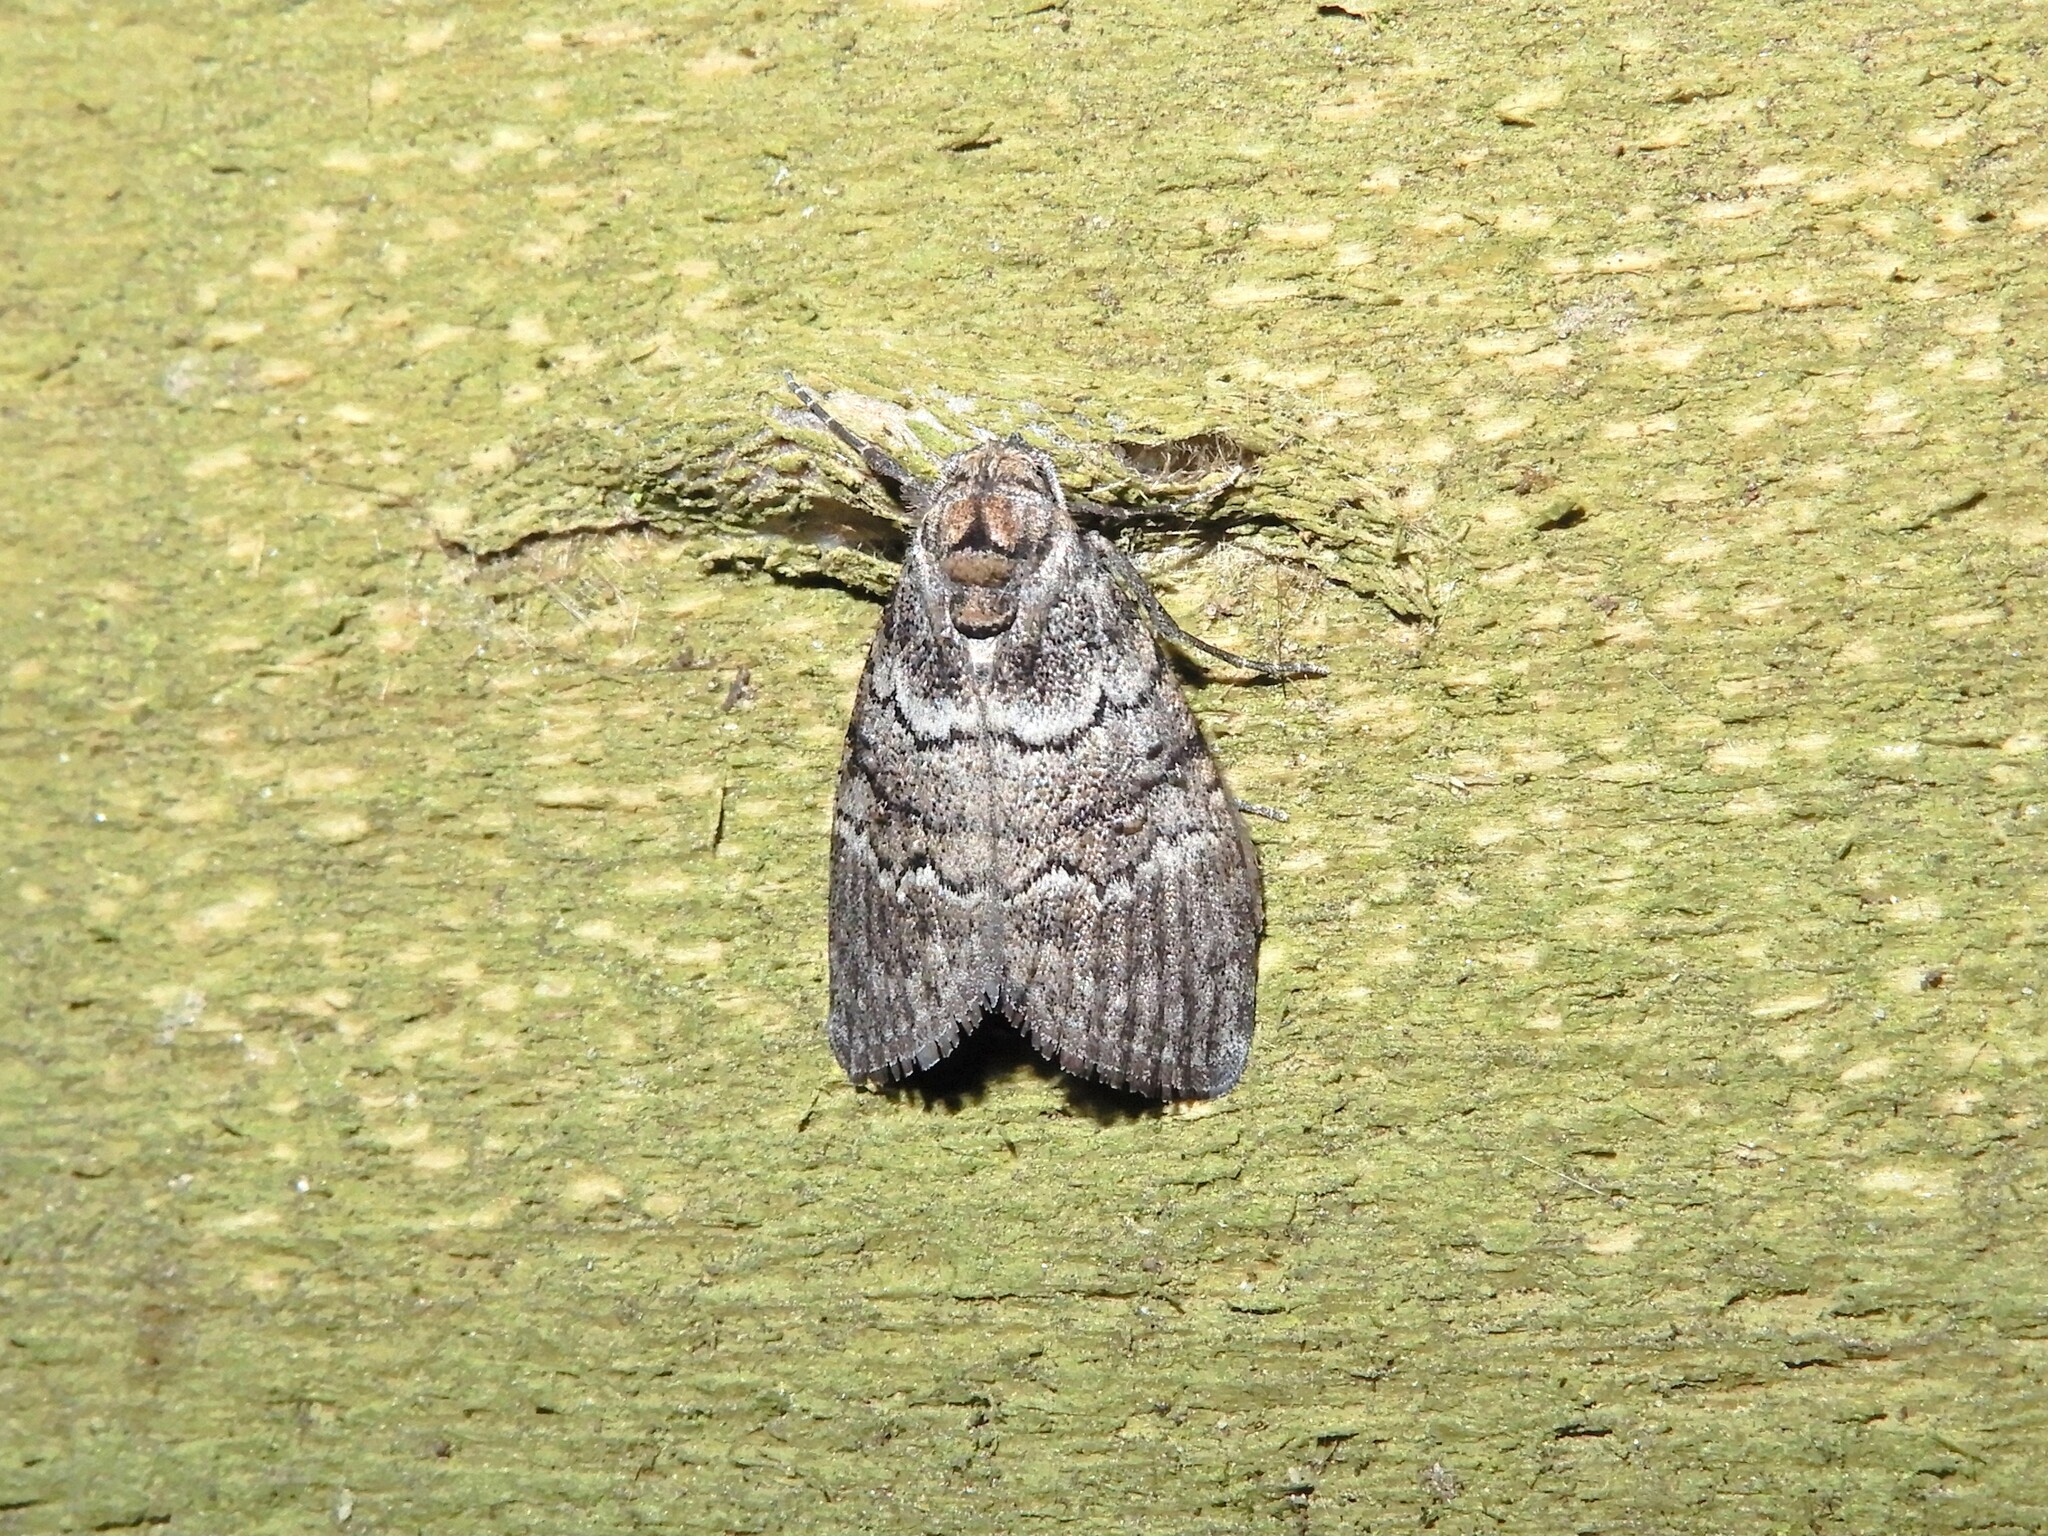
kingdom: Animalia
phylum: Arthropoda
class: Insecta
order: Lepidoptera
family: Nolidae
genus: Uraba
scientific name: Uraba lugens
